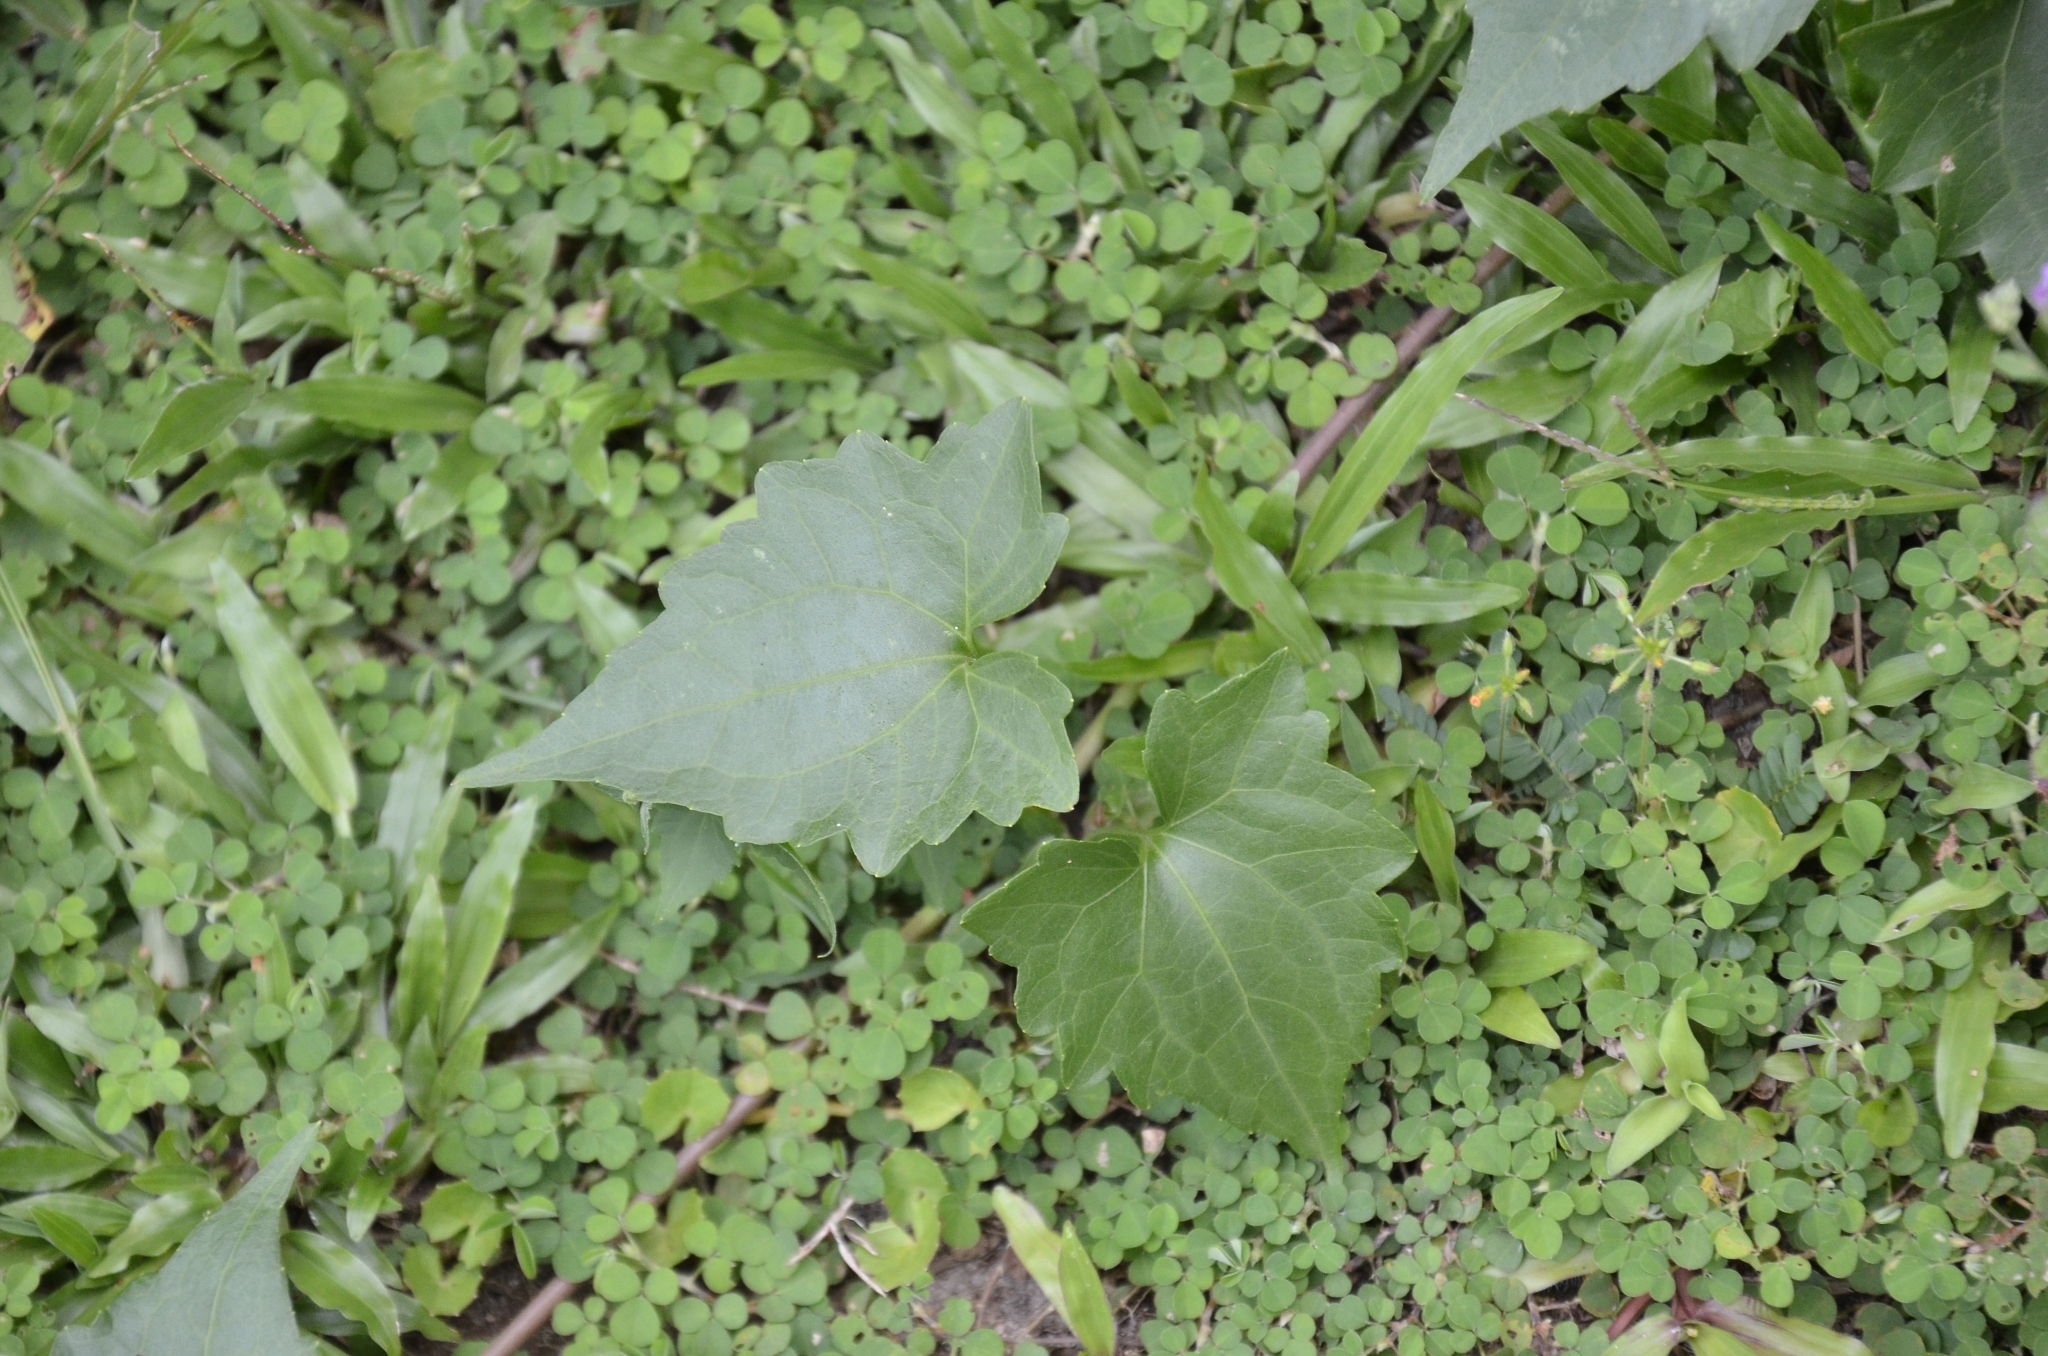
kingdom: Plantae
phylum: Tracheophyta
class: Magnoliopsida
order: Asterales
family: Asteraceae
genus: Mikania
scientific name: Mikania micrantha
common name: Mile-a-minute
